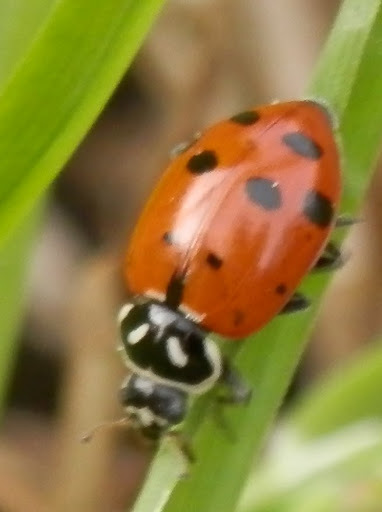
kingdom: Animalia
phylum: Arthropoda
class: Insecta
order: Coleoptera
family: Coccinellidae
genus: Hippodamia
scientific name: Hippodamia convergens
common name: Convergent lady beetle
